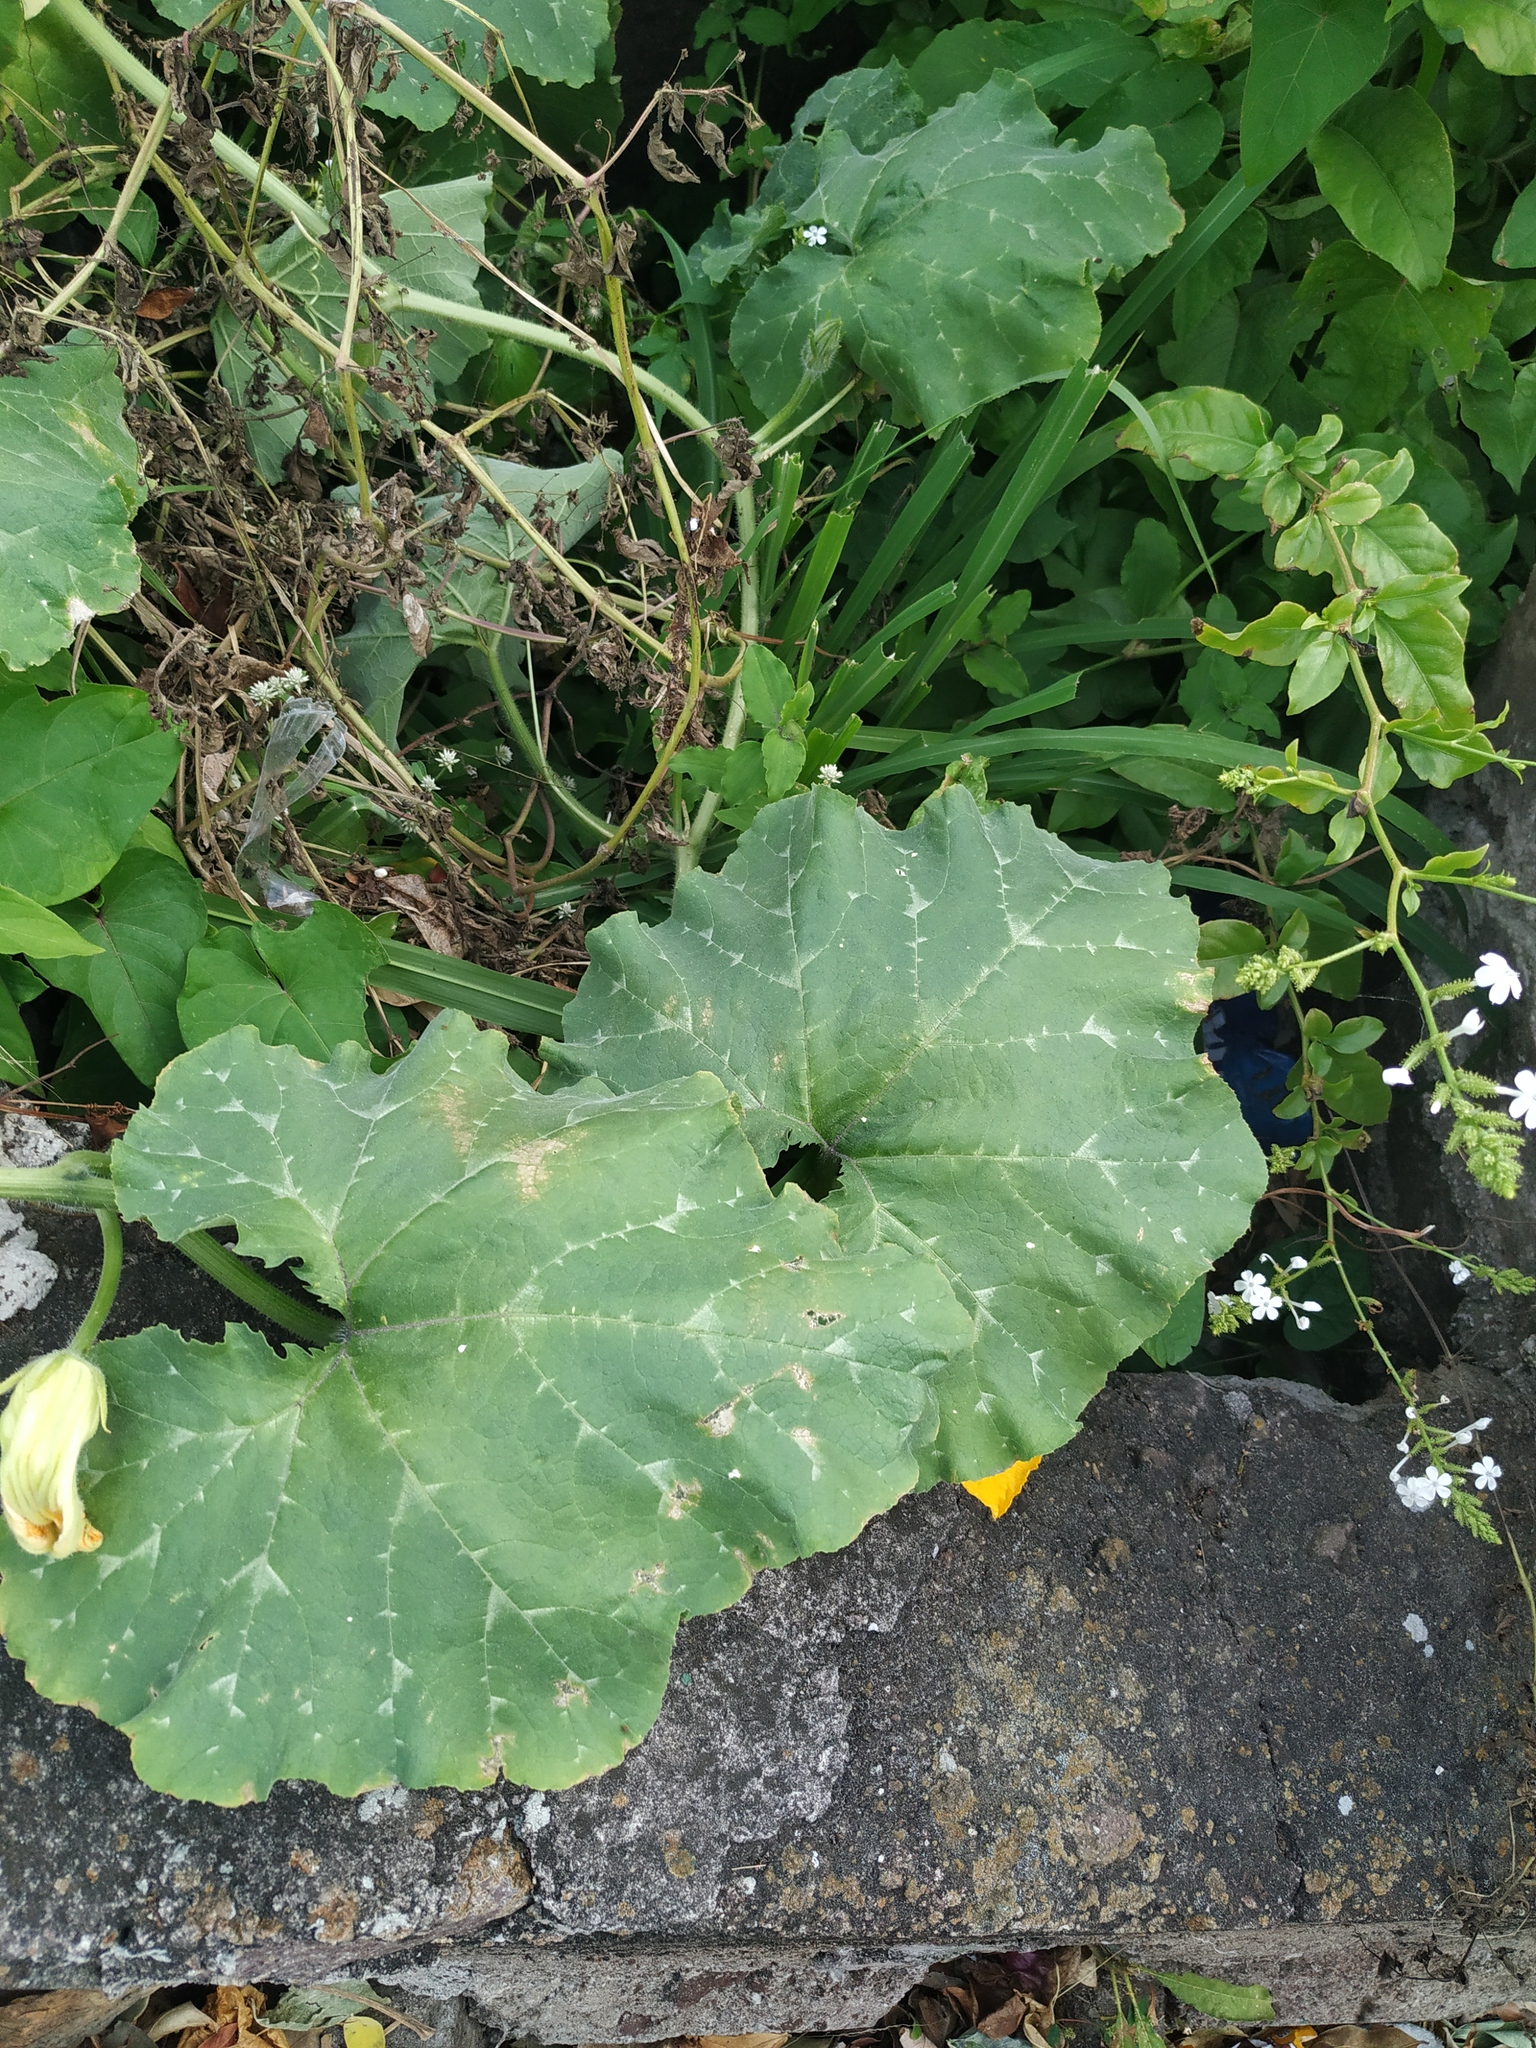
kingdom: Plantae
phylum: Tracheophyta
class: Magnoliopsida
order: Cucurbitales
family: Cucurbitaceae
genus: Cucurbita
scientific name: Cucurbita moschata
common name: Squash / pumpkin
